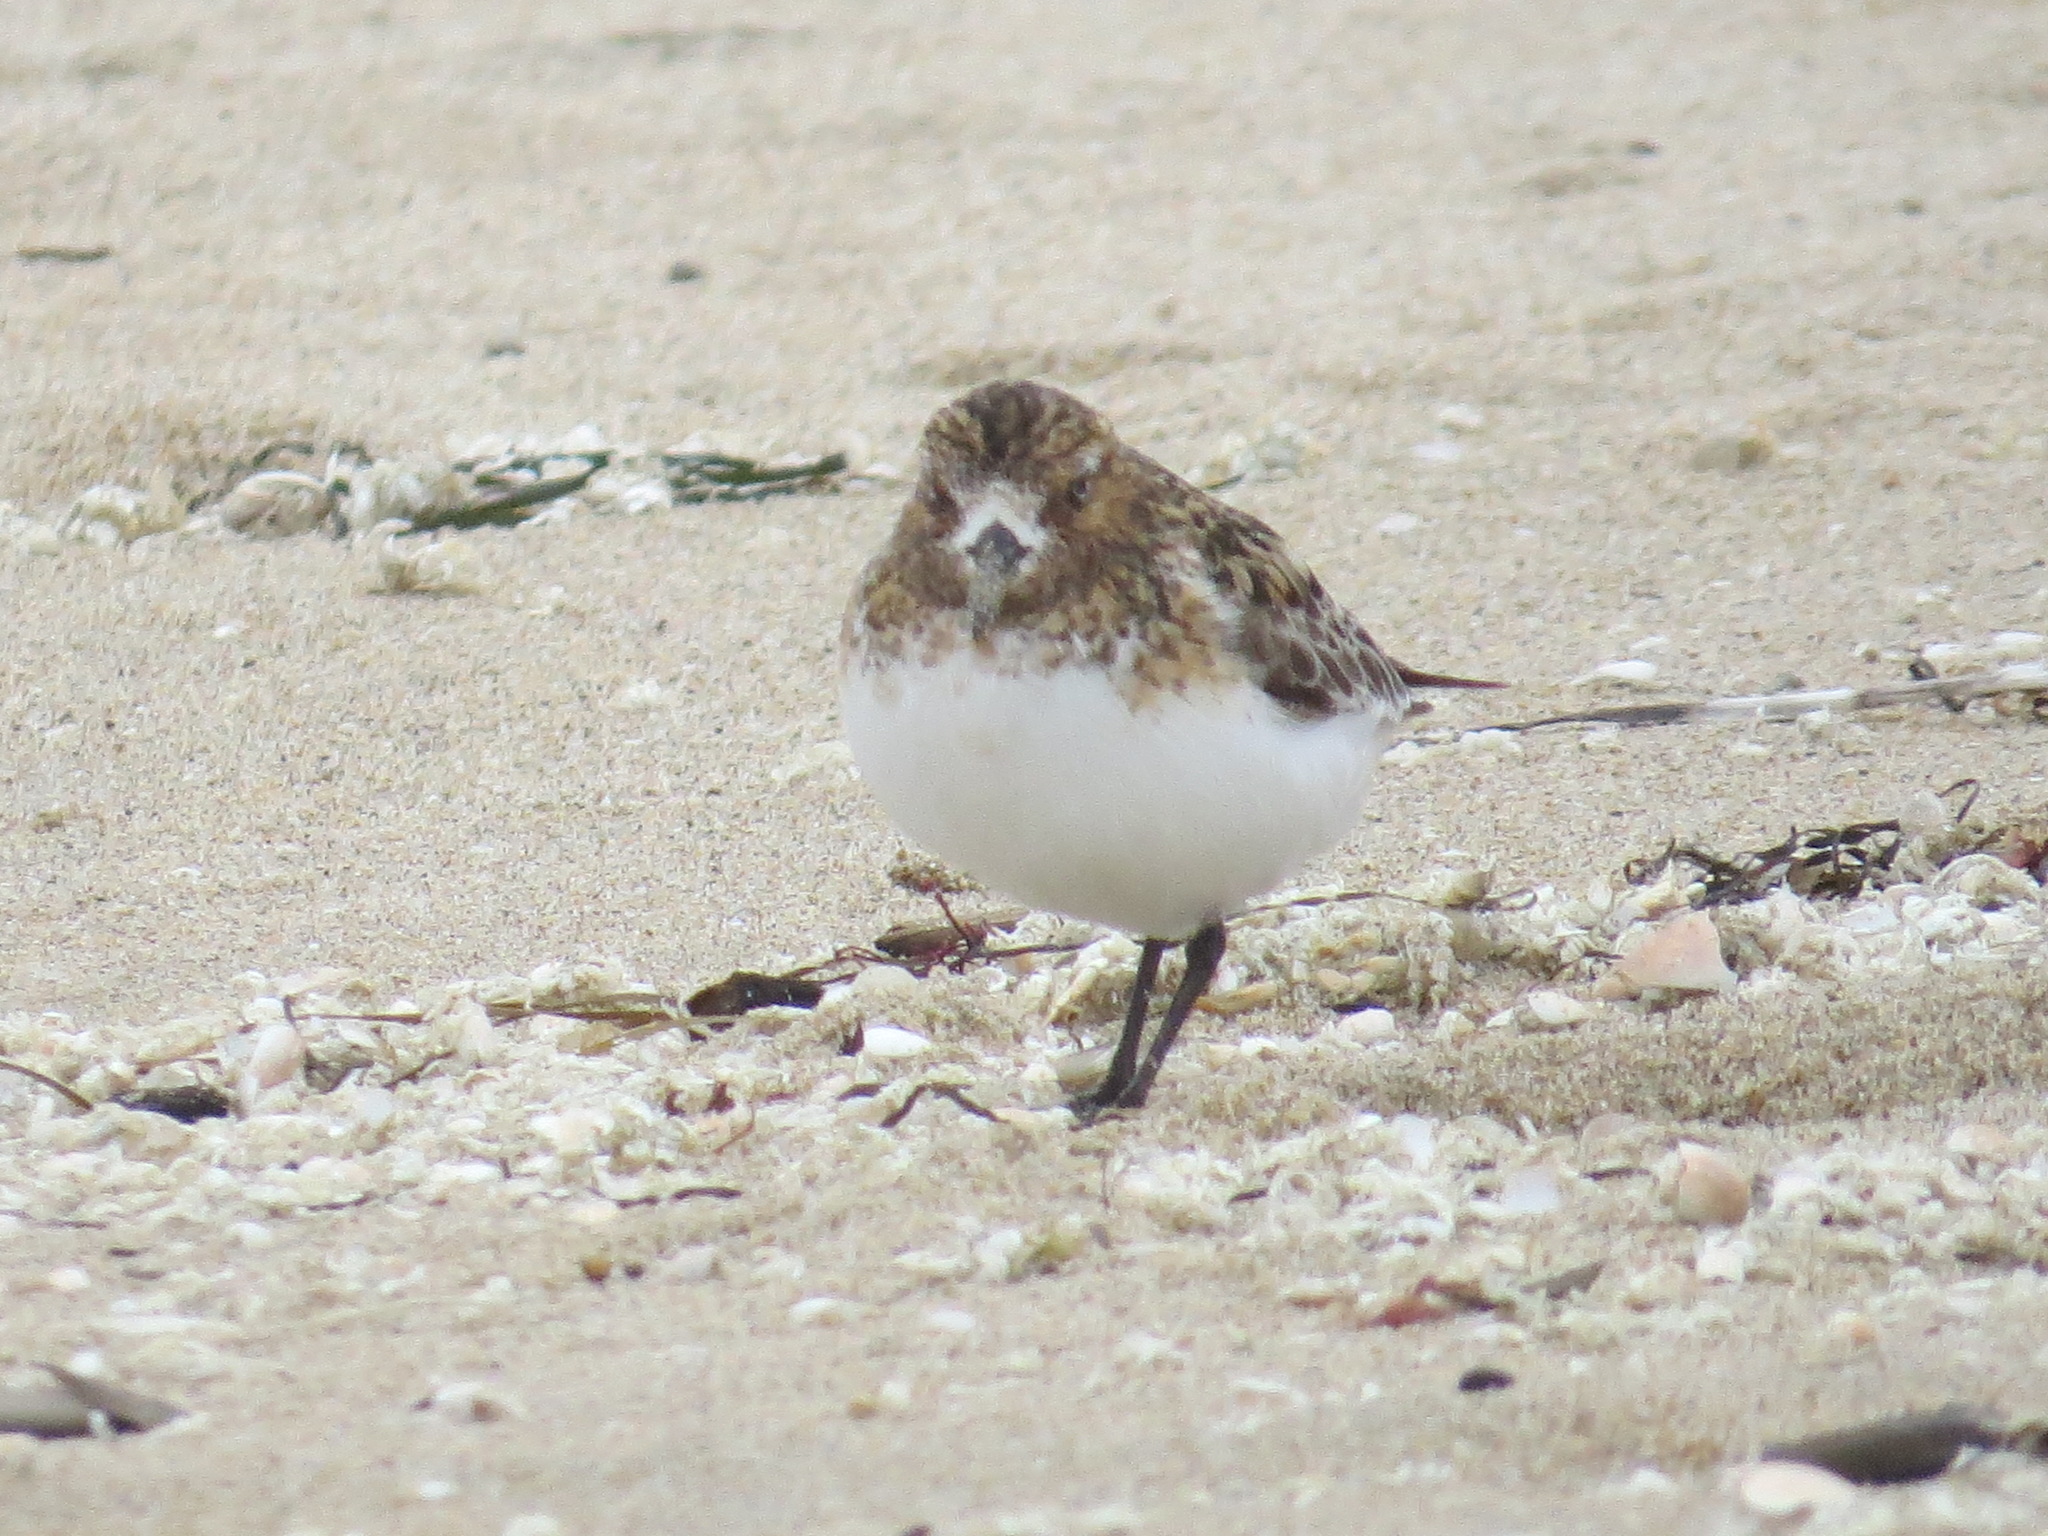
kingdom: Animalia
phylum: Chordata
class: Aves
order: Charadriiformes
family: Scolopacidae
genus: Calidris
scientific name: Calidris alba
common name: Sanderling
